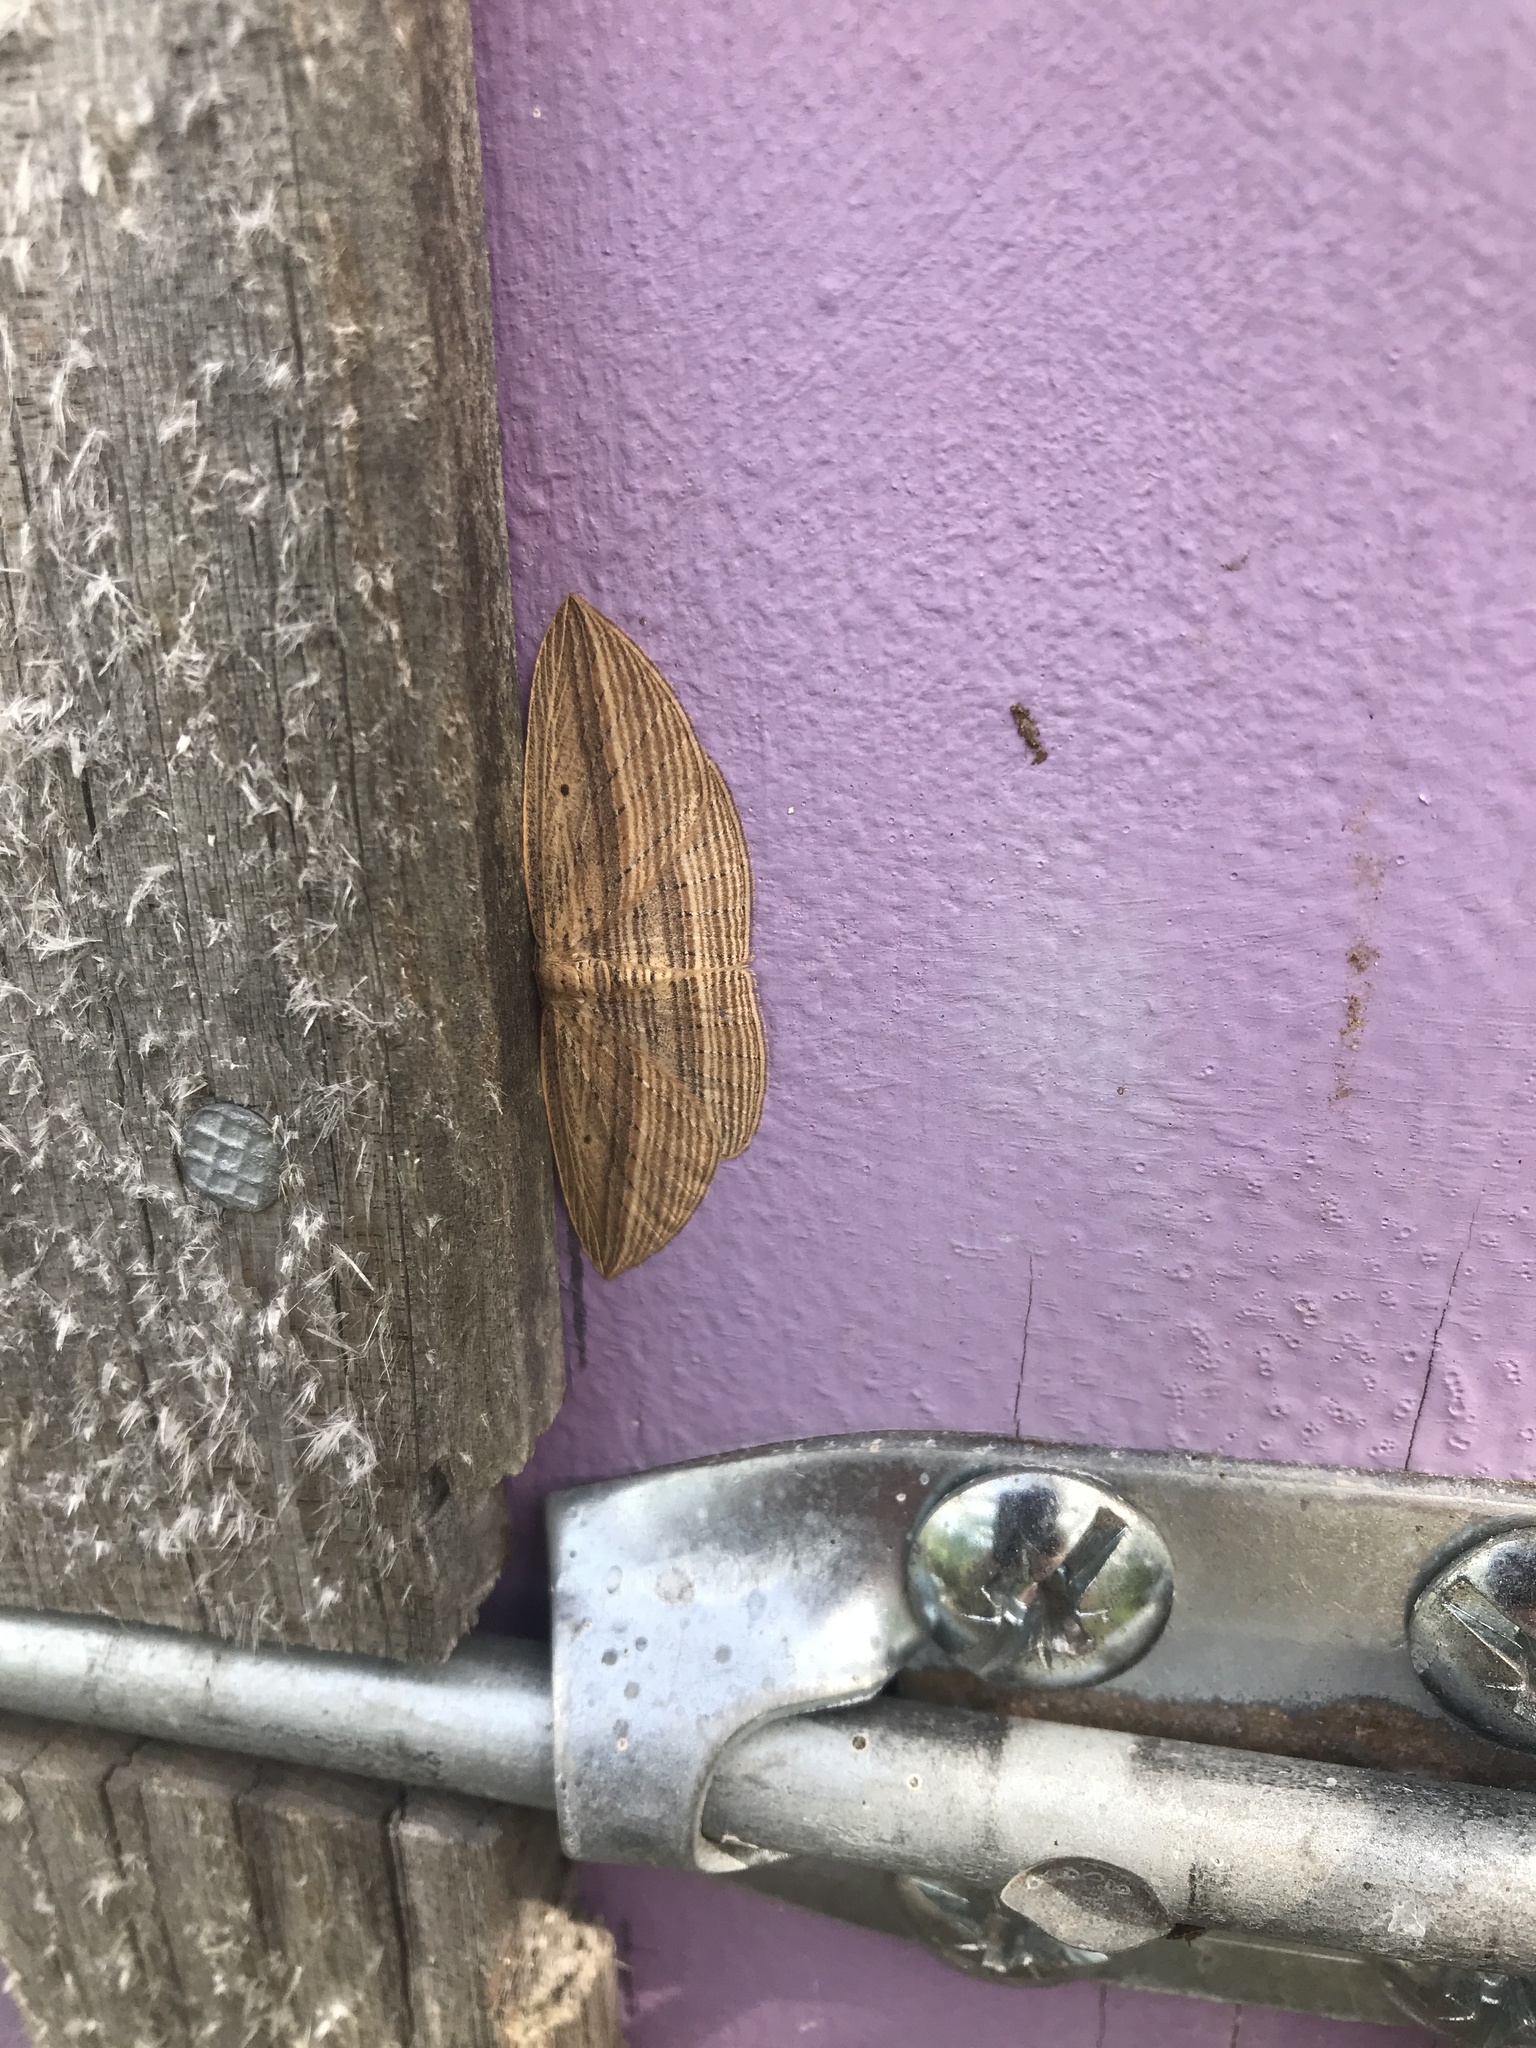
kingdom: Animalia
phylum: Arthropoda
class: Insecta
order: Lepidoptera
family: Geometridae
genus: Epiphryne
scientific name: Epiphryne verriculata
